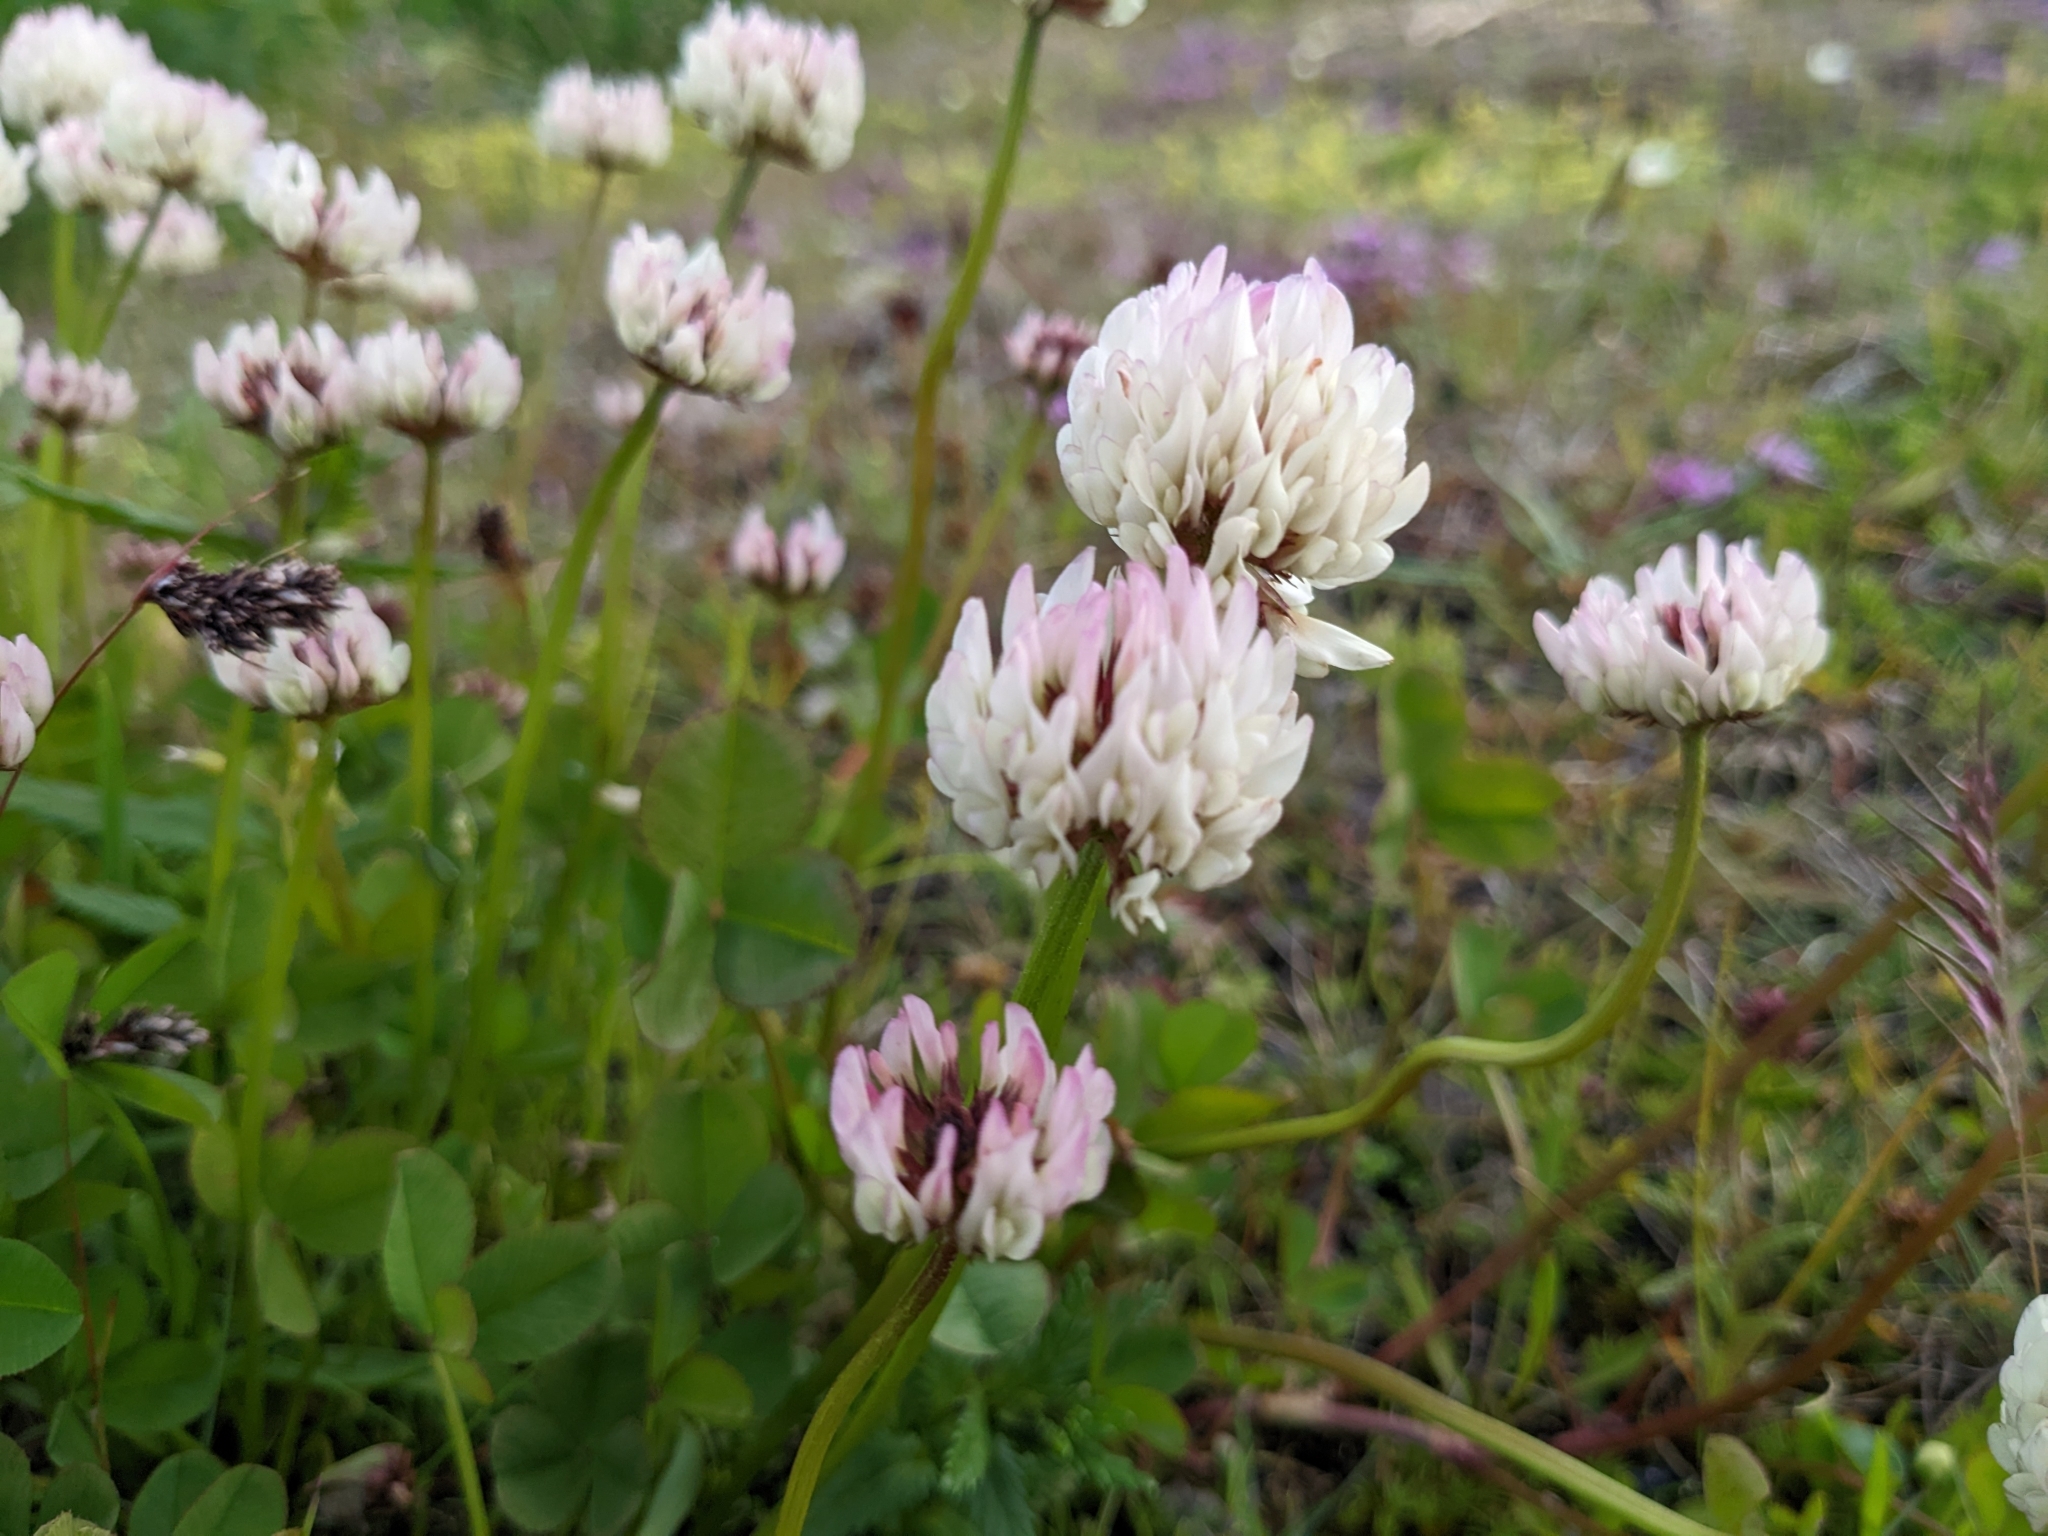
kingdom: Plantae
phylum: Tracheophyta
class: Magnoliopsida
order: Fabales
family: Fabaceae
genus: Trifolium
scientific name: Trifolium repens
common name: White clover
